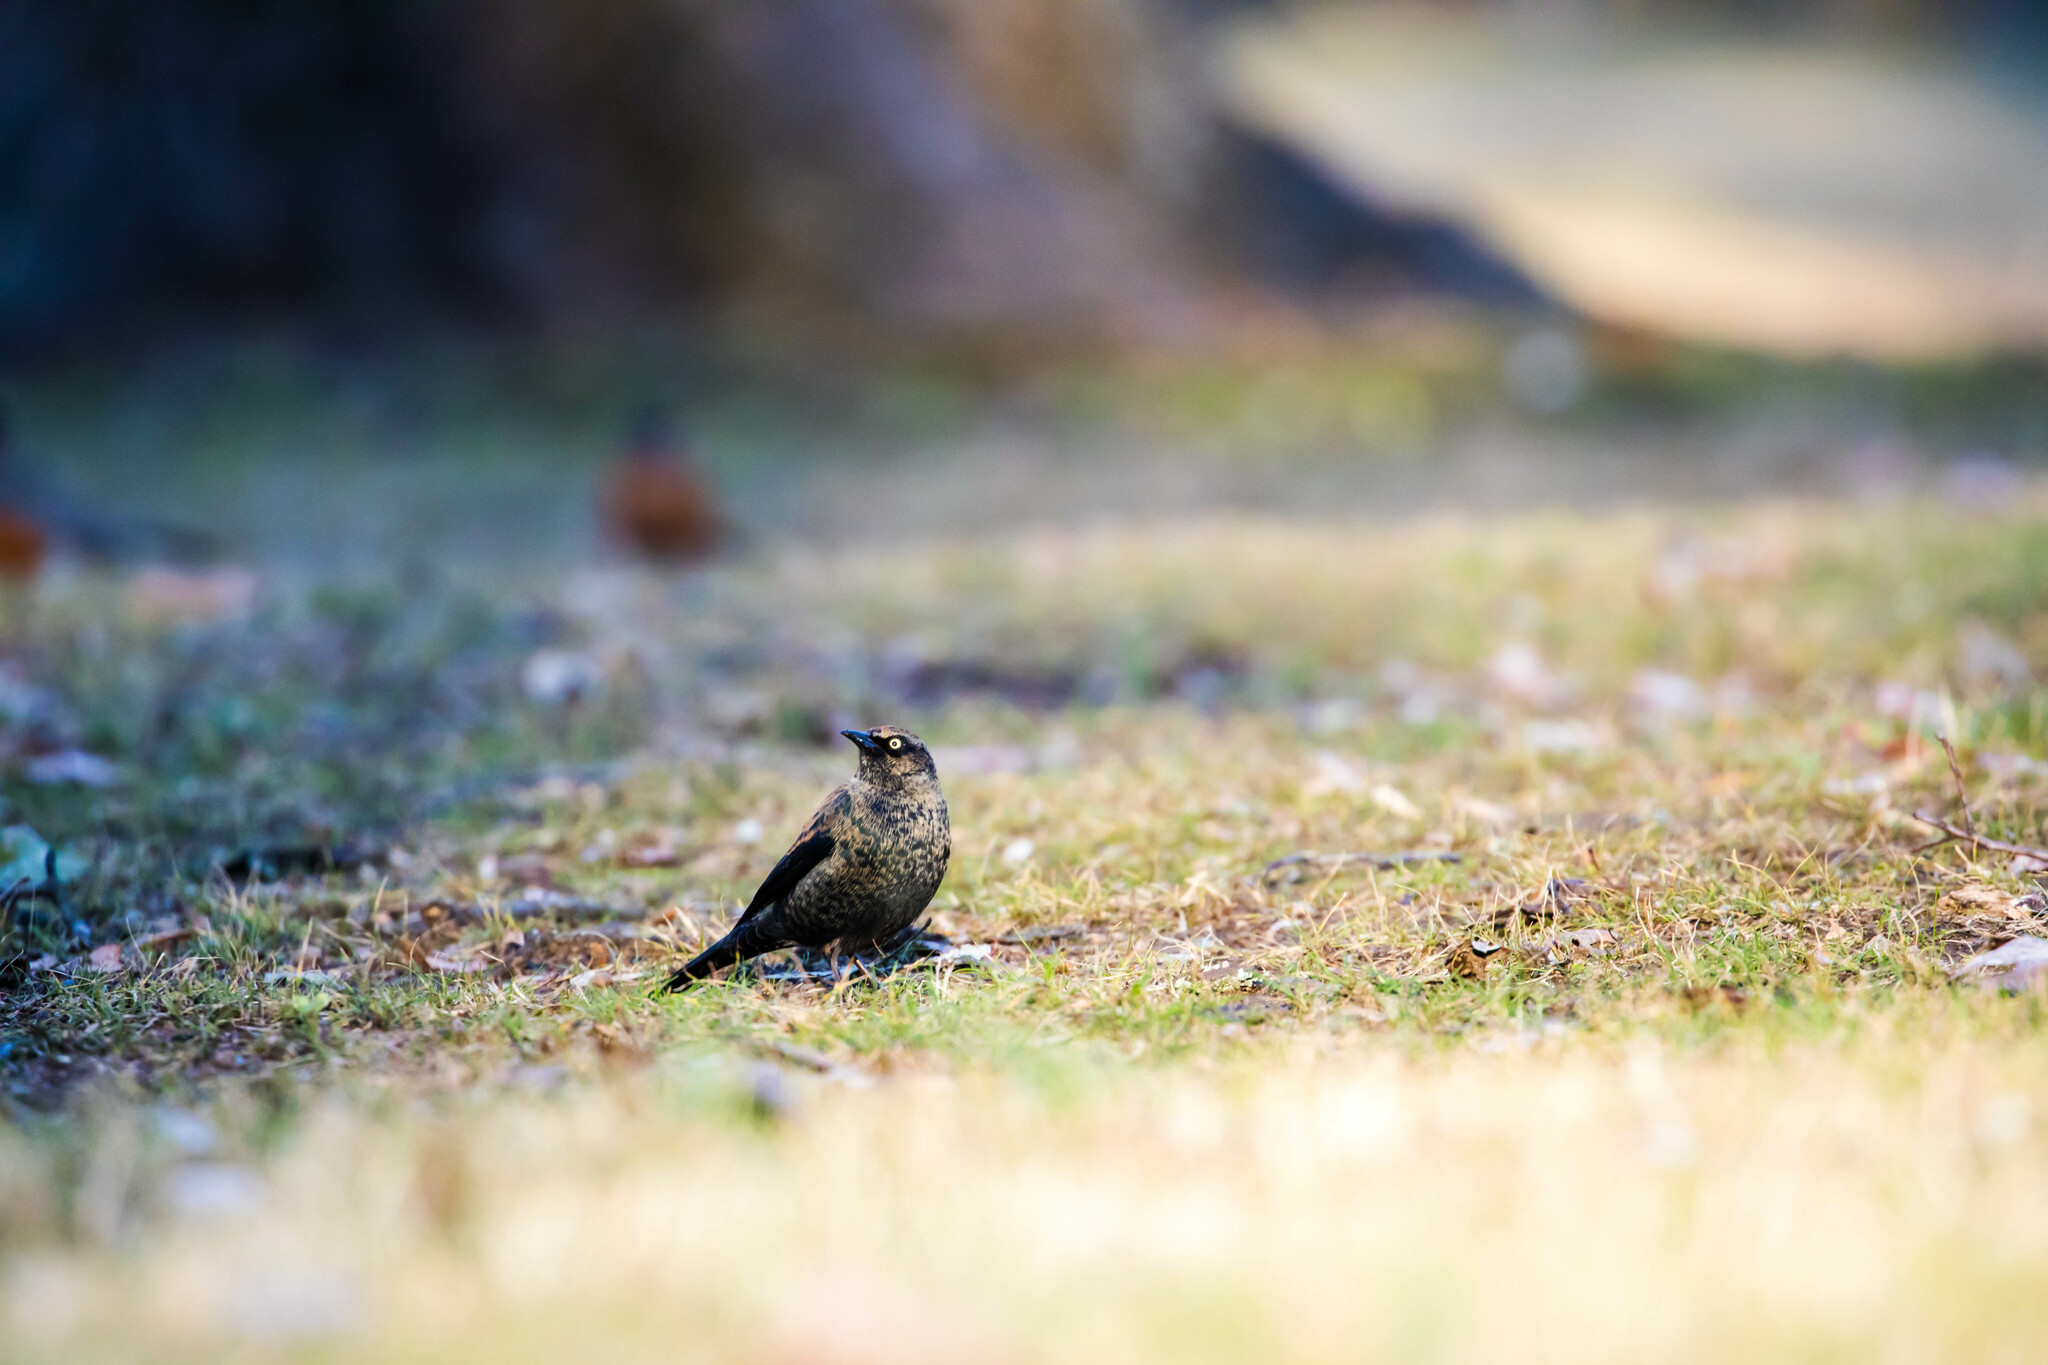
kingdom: Animalia
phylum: Chordata
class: Aves
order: Passeriformes
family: Icteridae
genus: Euphagus
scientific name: Euphagus carolinus
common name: Rusty blackbird
